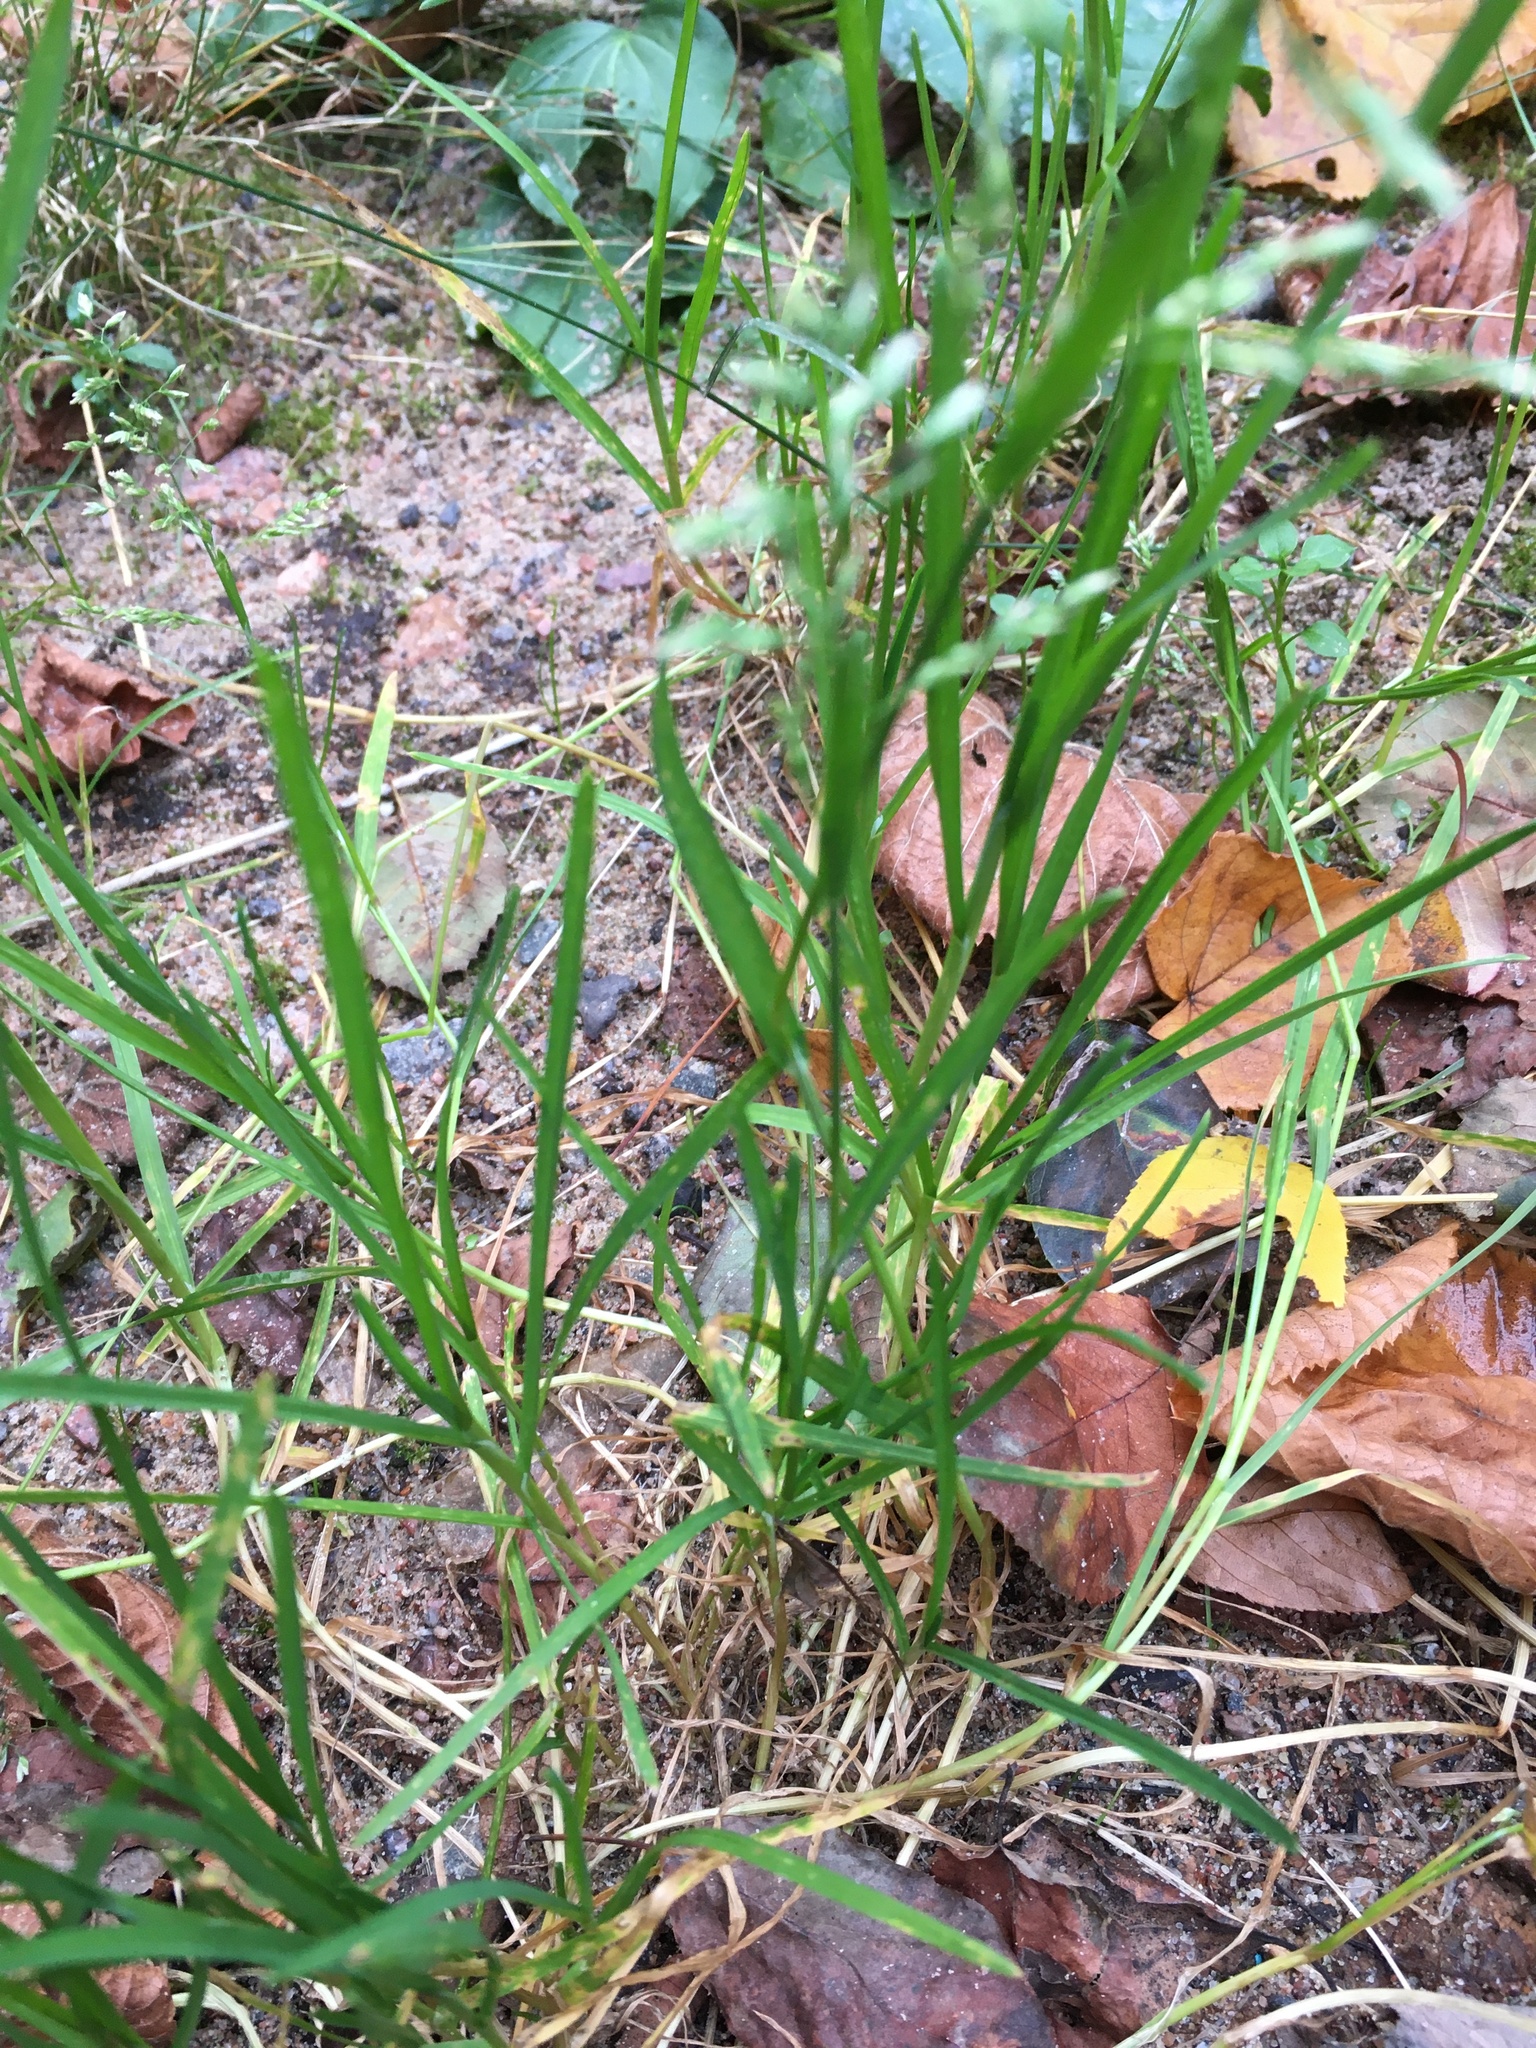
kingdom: Plantae
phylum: Tracheophyta
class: Liliopsida
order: Poales
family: Poaceae
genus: Poa
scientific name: Poa annua
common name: Annual bluegrass
